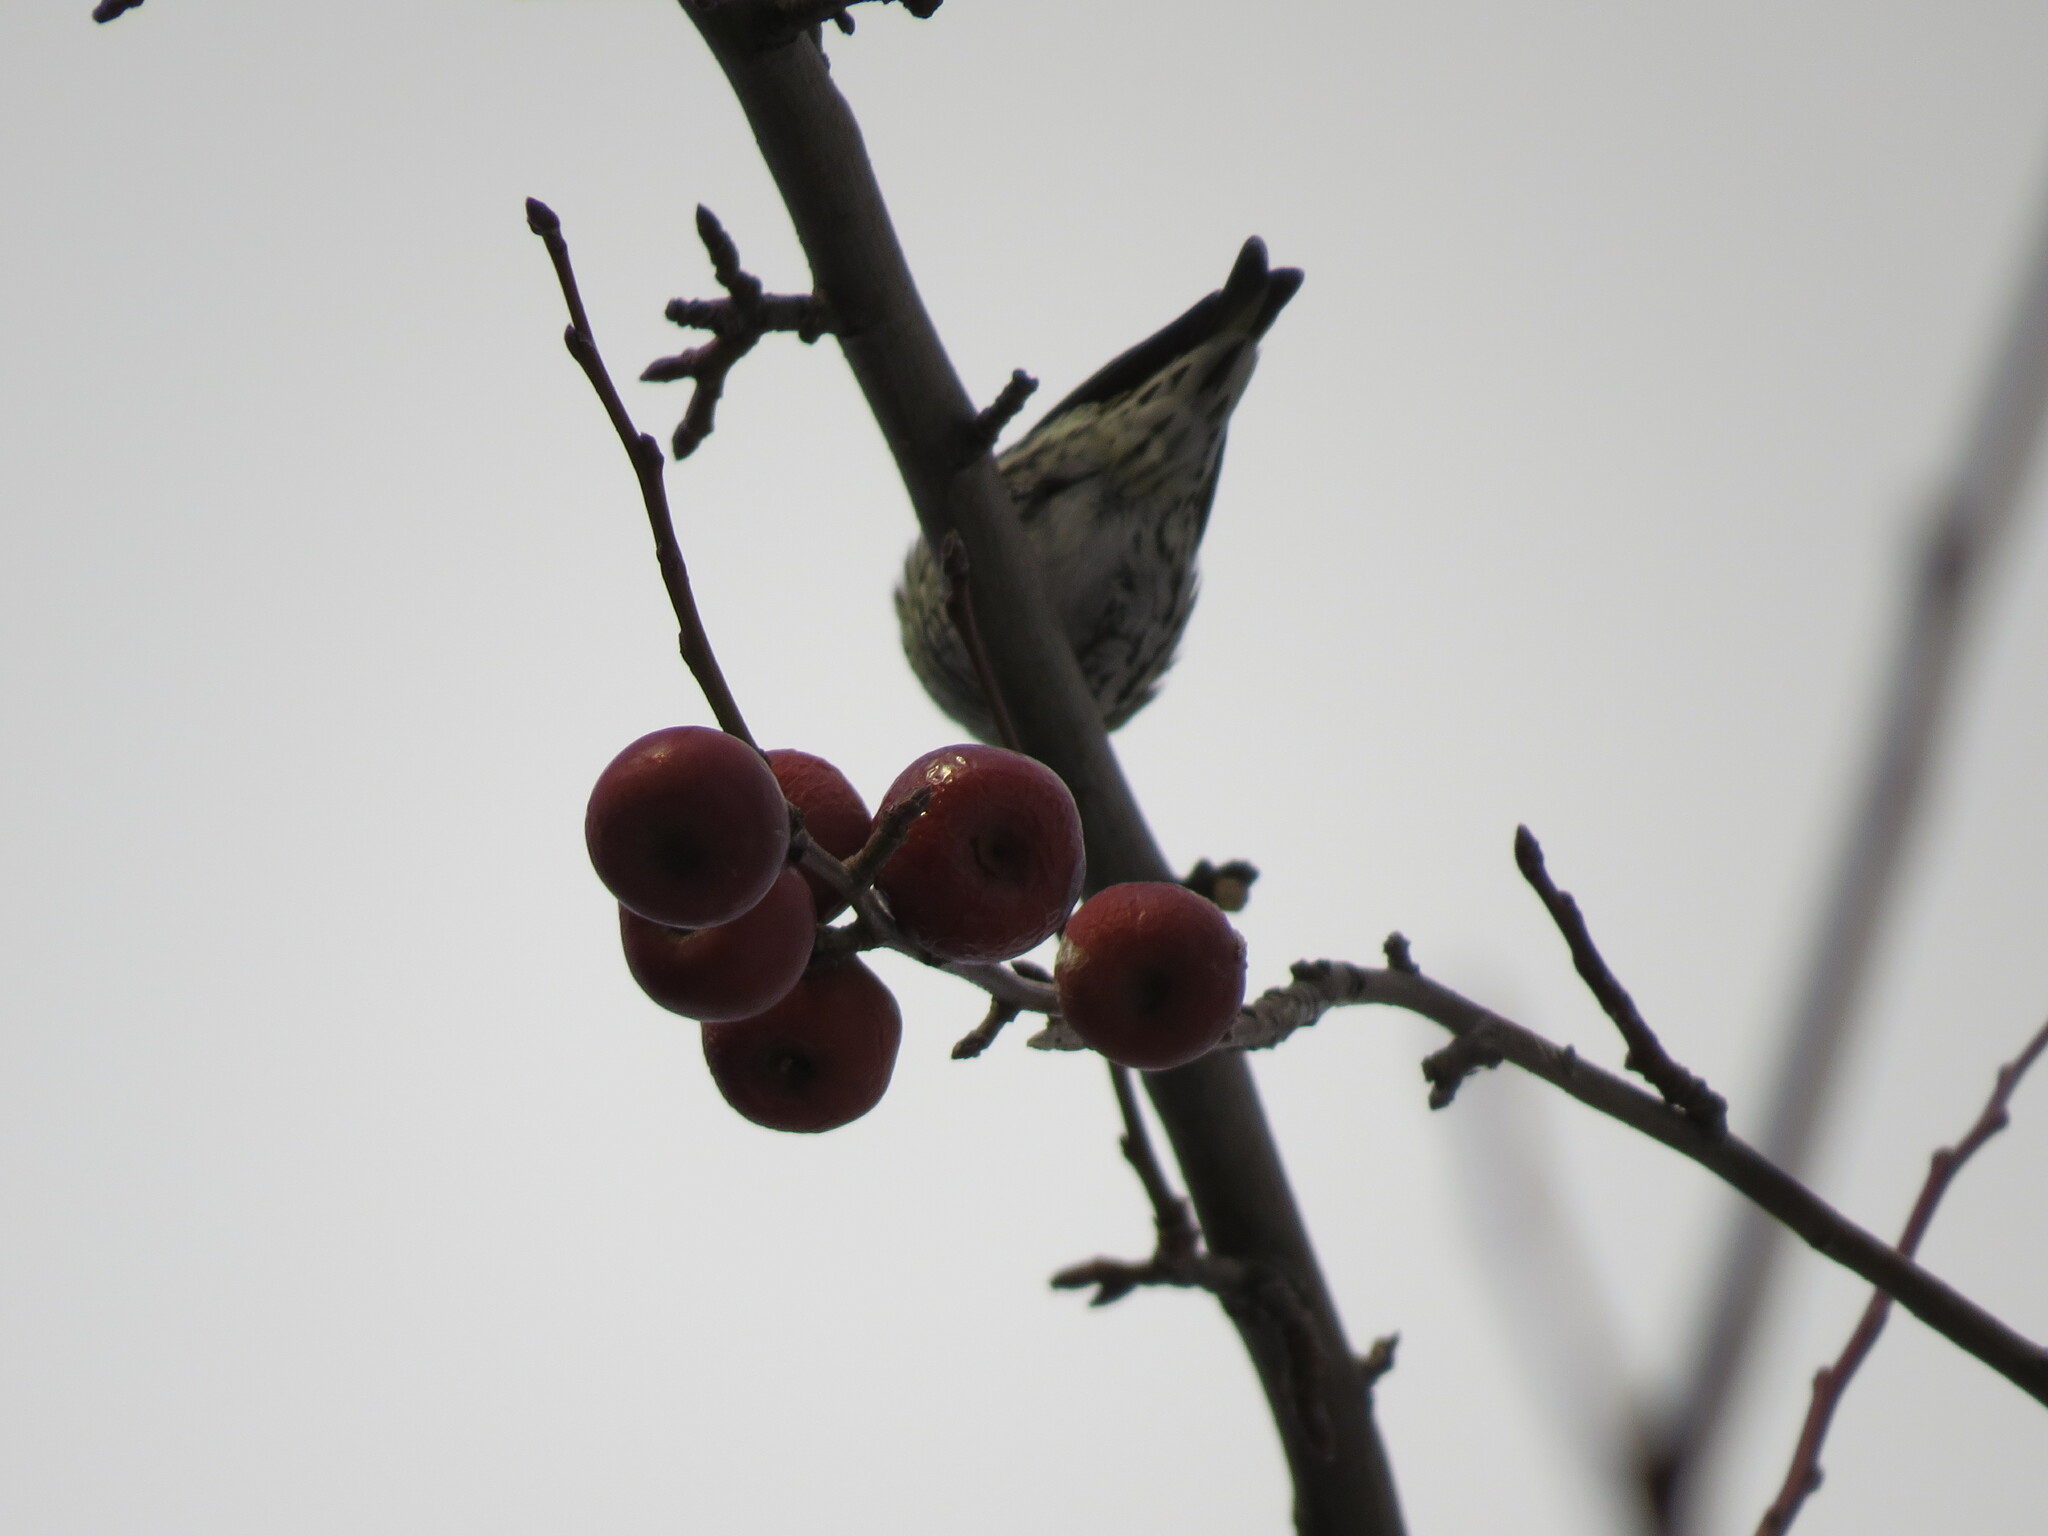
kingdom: Animalia
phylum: Chordata
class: Aves
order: Passeriformes
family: Fringillidae
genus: Spinus
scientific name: Spinus spinus
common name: Eurasian siskin
